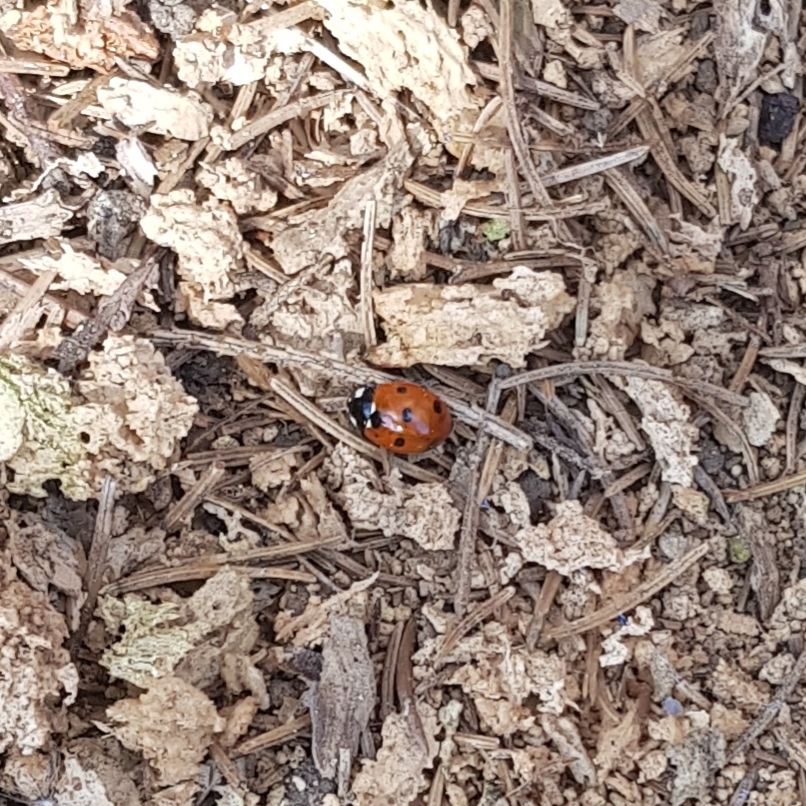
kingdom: Animalia
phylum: Arthropoda
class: Insecta
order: Coleoptera
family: Coccinellidae
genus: Coccinella
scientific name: Coccinella septempunctata
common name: Sevenspotted lady beetle
